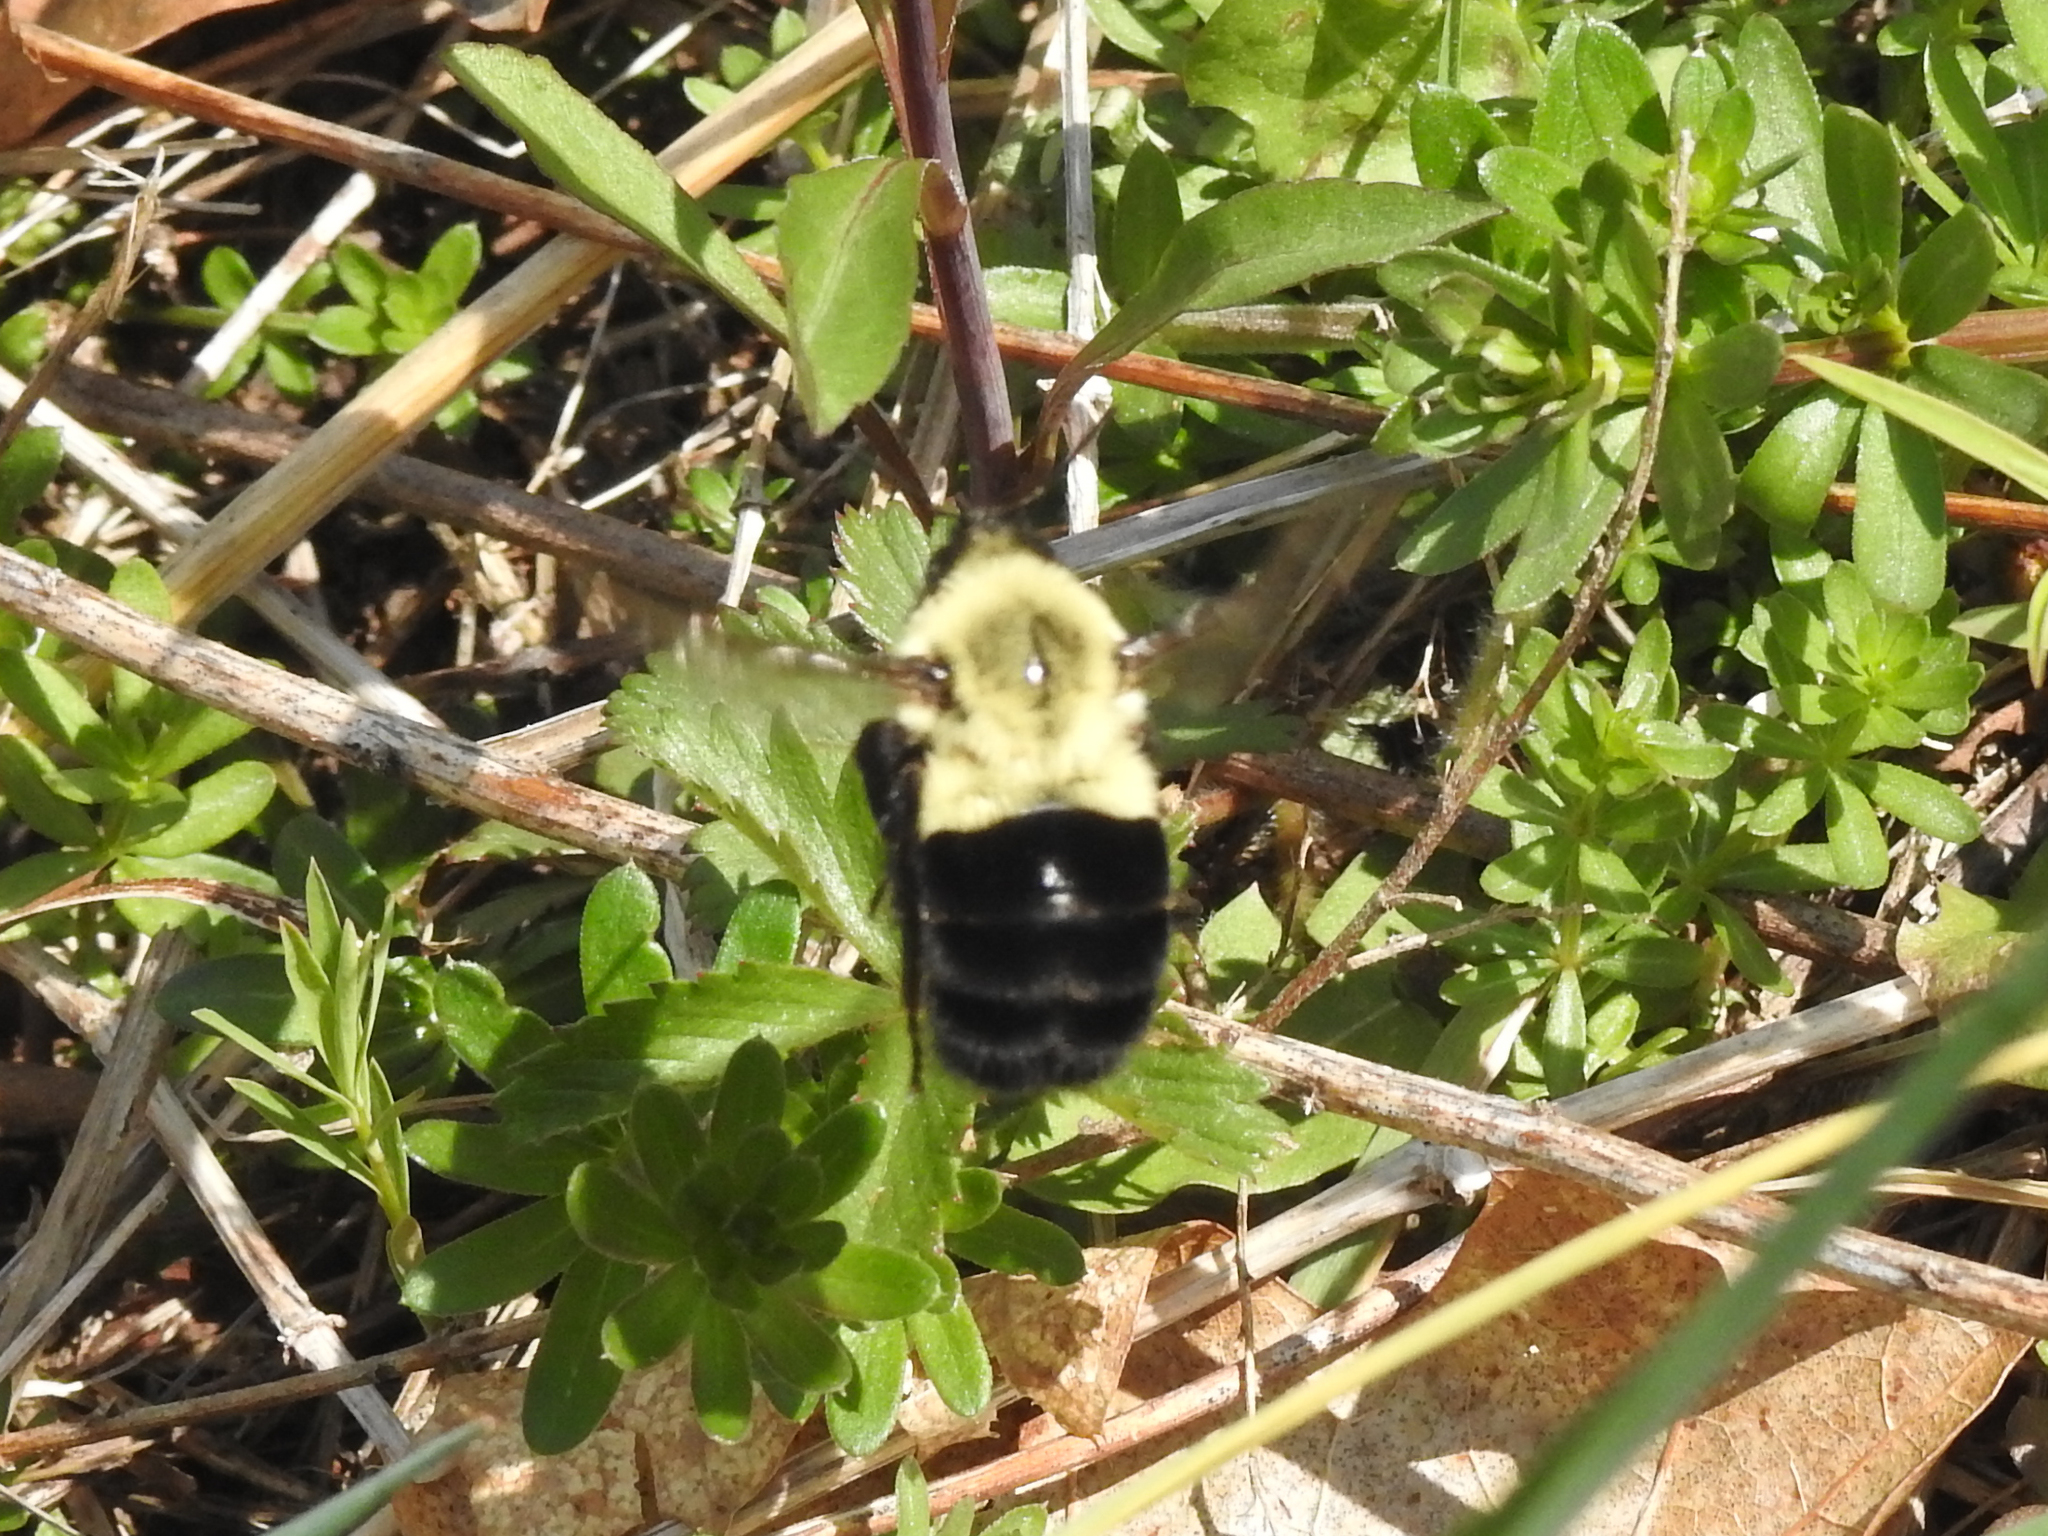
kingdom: Animalia
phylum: Arthropoda
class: Insecta
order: Hymenoptera
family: Apidae
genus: Bombus
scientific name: Bombus impatiens
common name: Common eastern bumble bee
